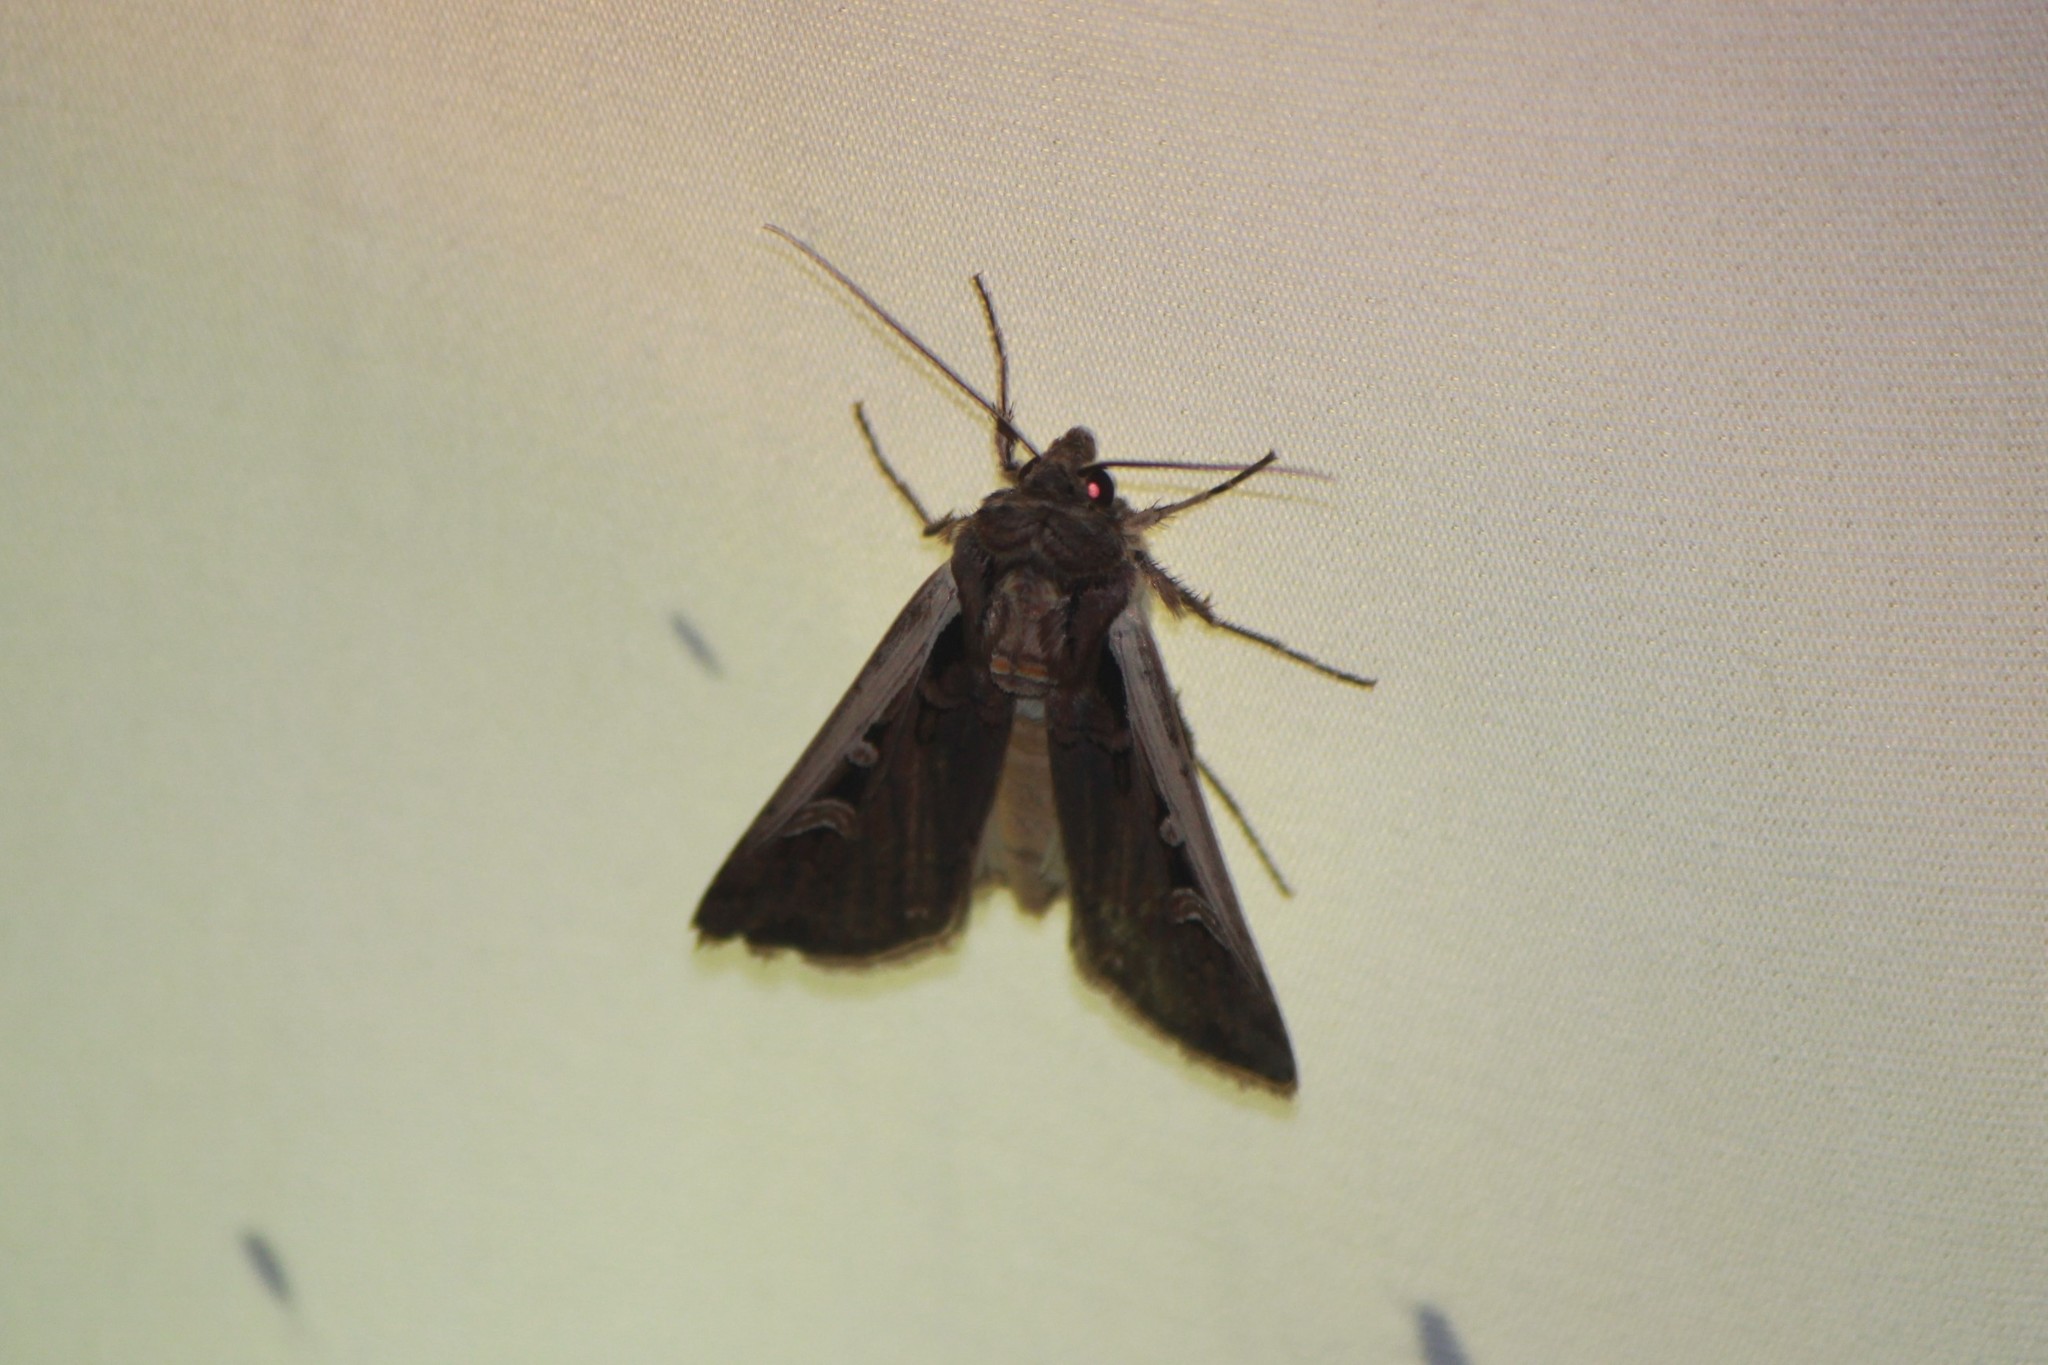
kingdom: Animalia
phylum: Arthropoda
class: Insecta
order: Lepidoptera
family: Noctuidae
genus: Striacosta
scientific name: Striacosta albicosta
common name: Western bean cutworm moth
